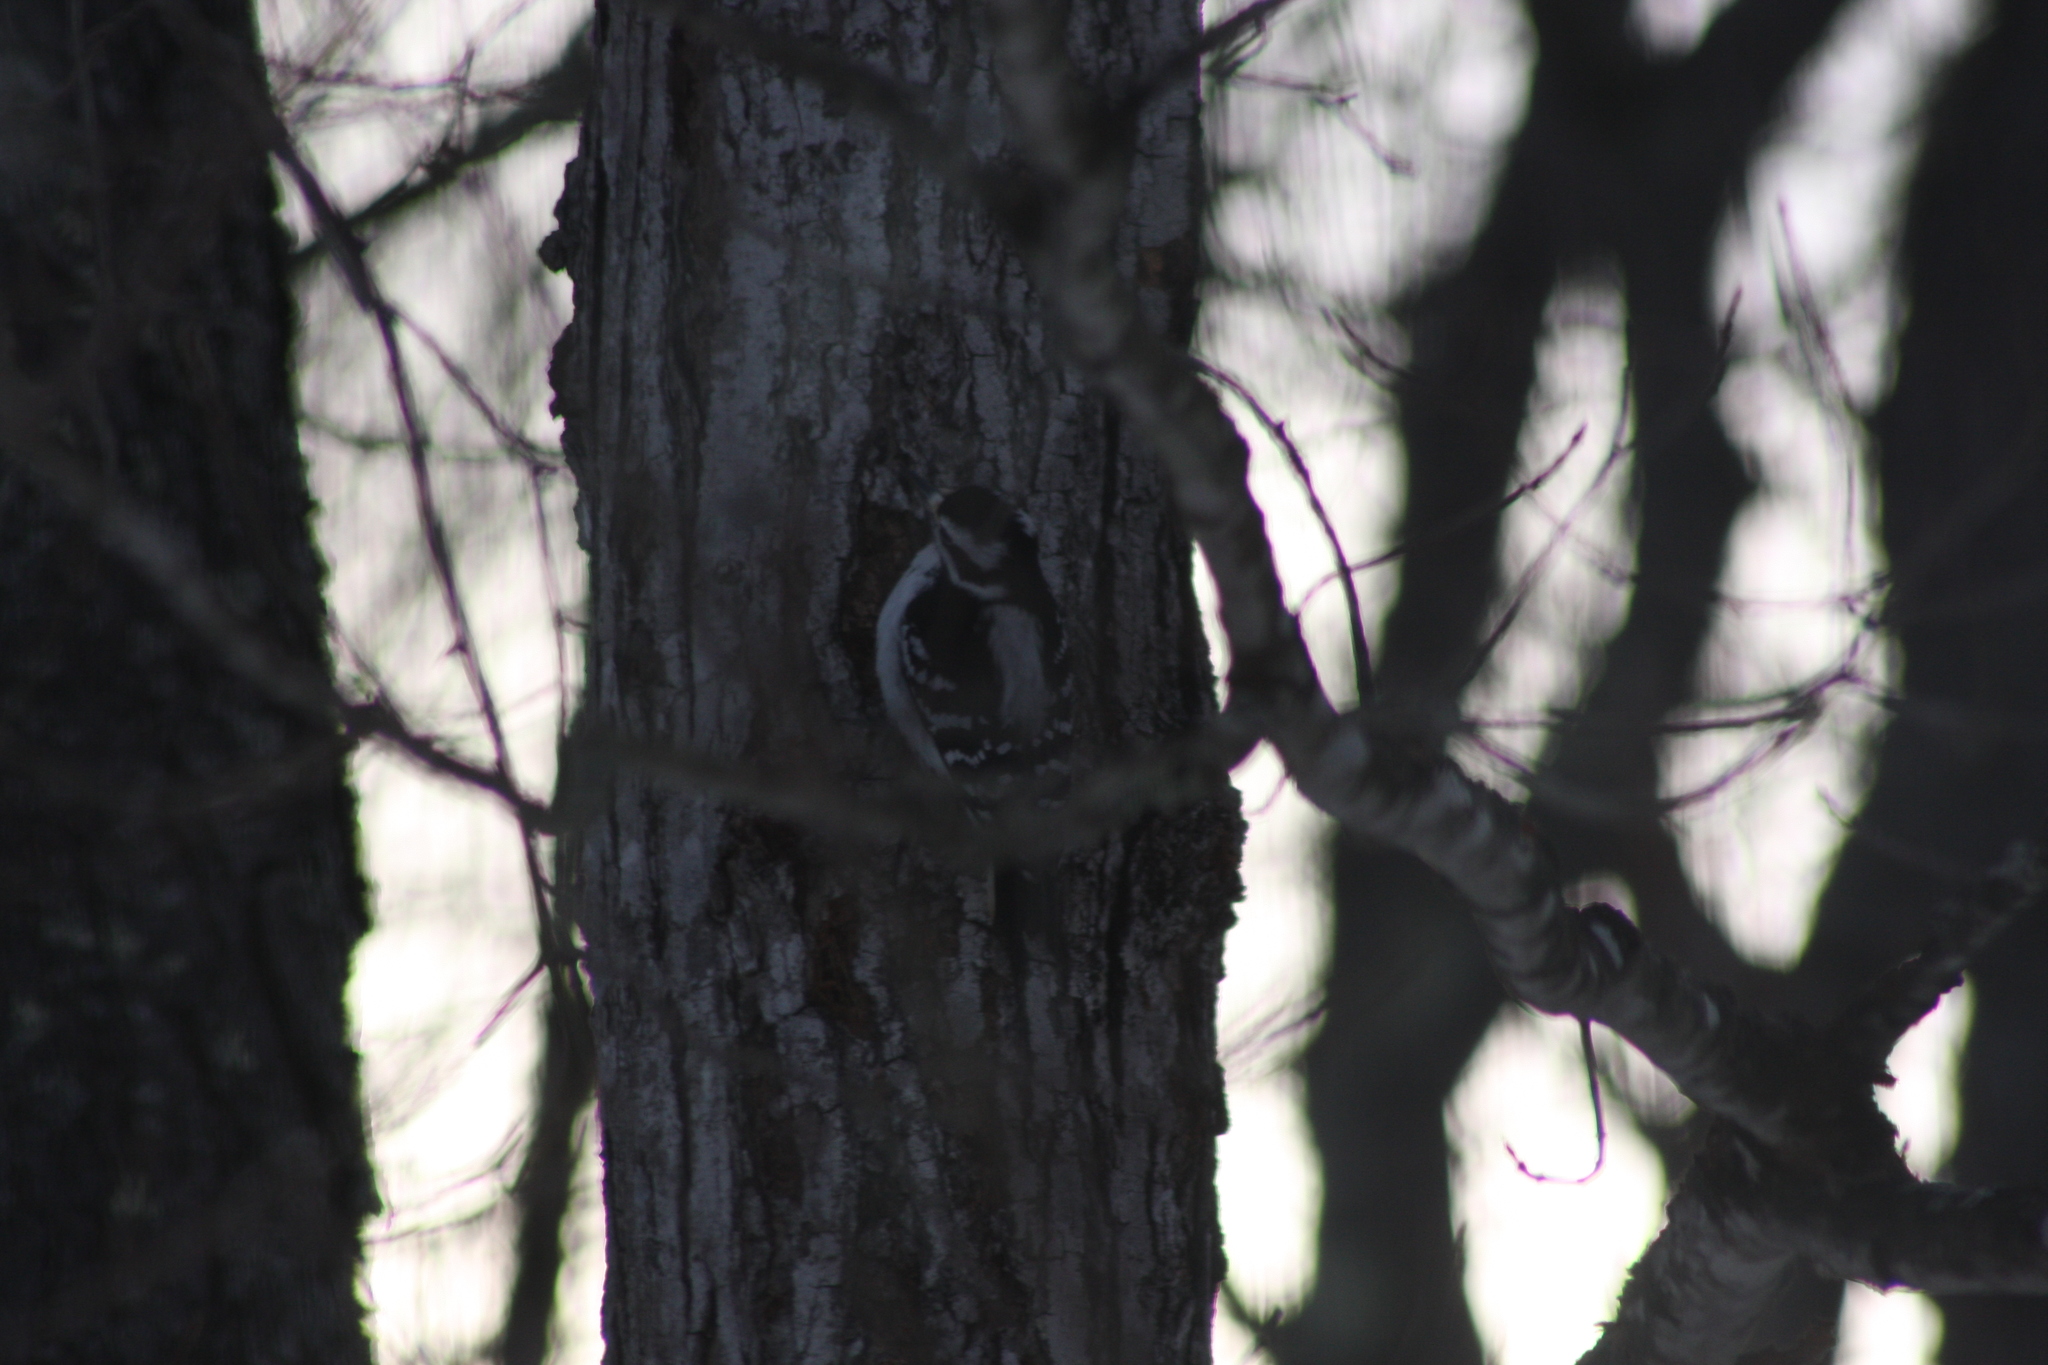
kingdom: Animalia
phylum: Chordata
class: Mammalia
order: Rodentia
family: Sciuridae
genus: Sciurus
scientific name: Sciurus carolinensis
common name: Eastern gray squirrel
